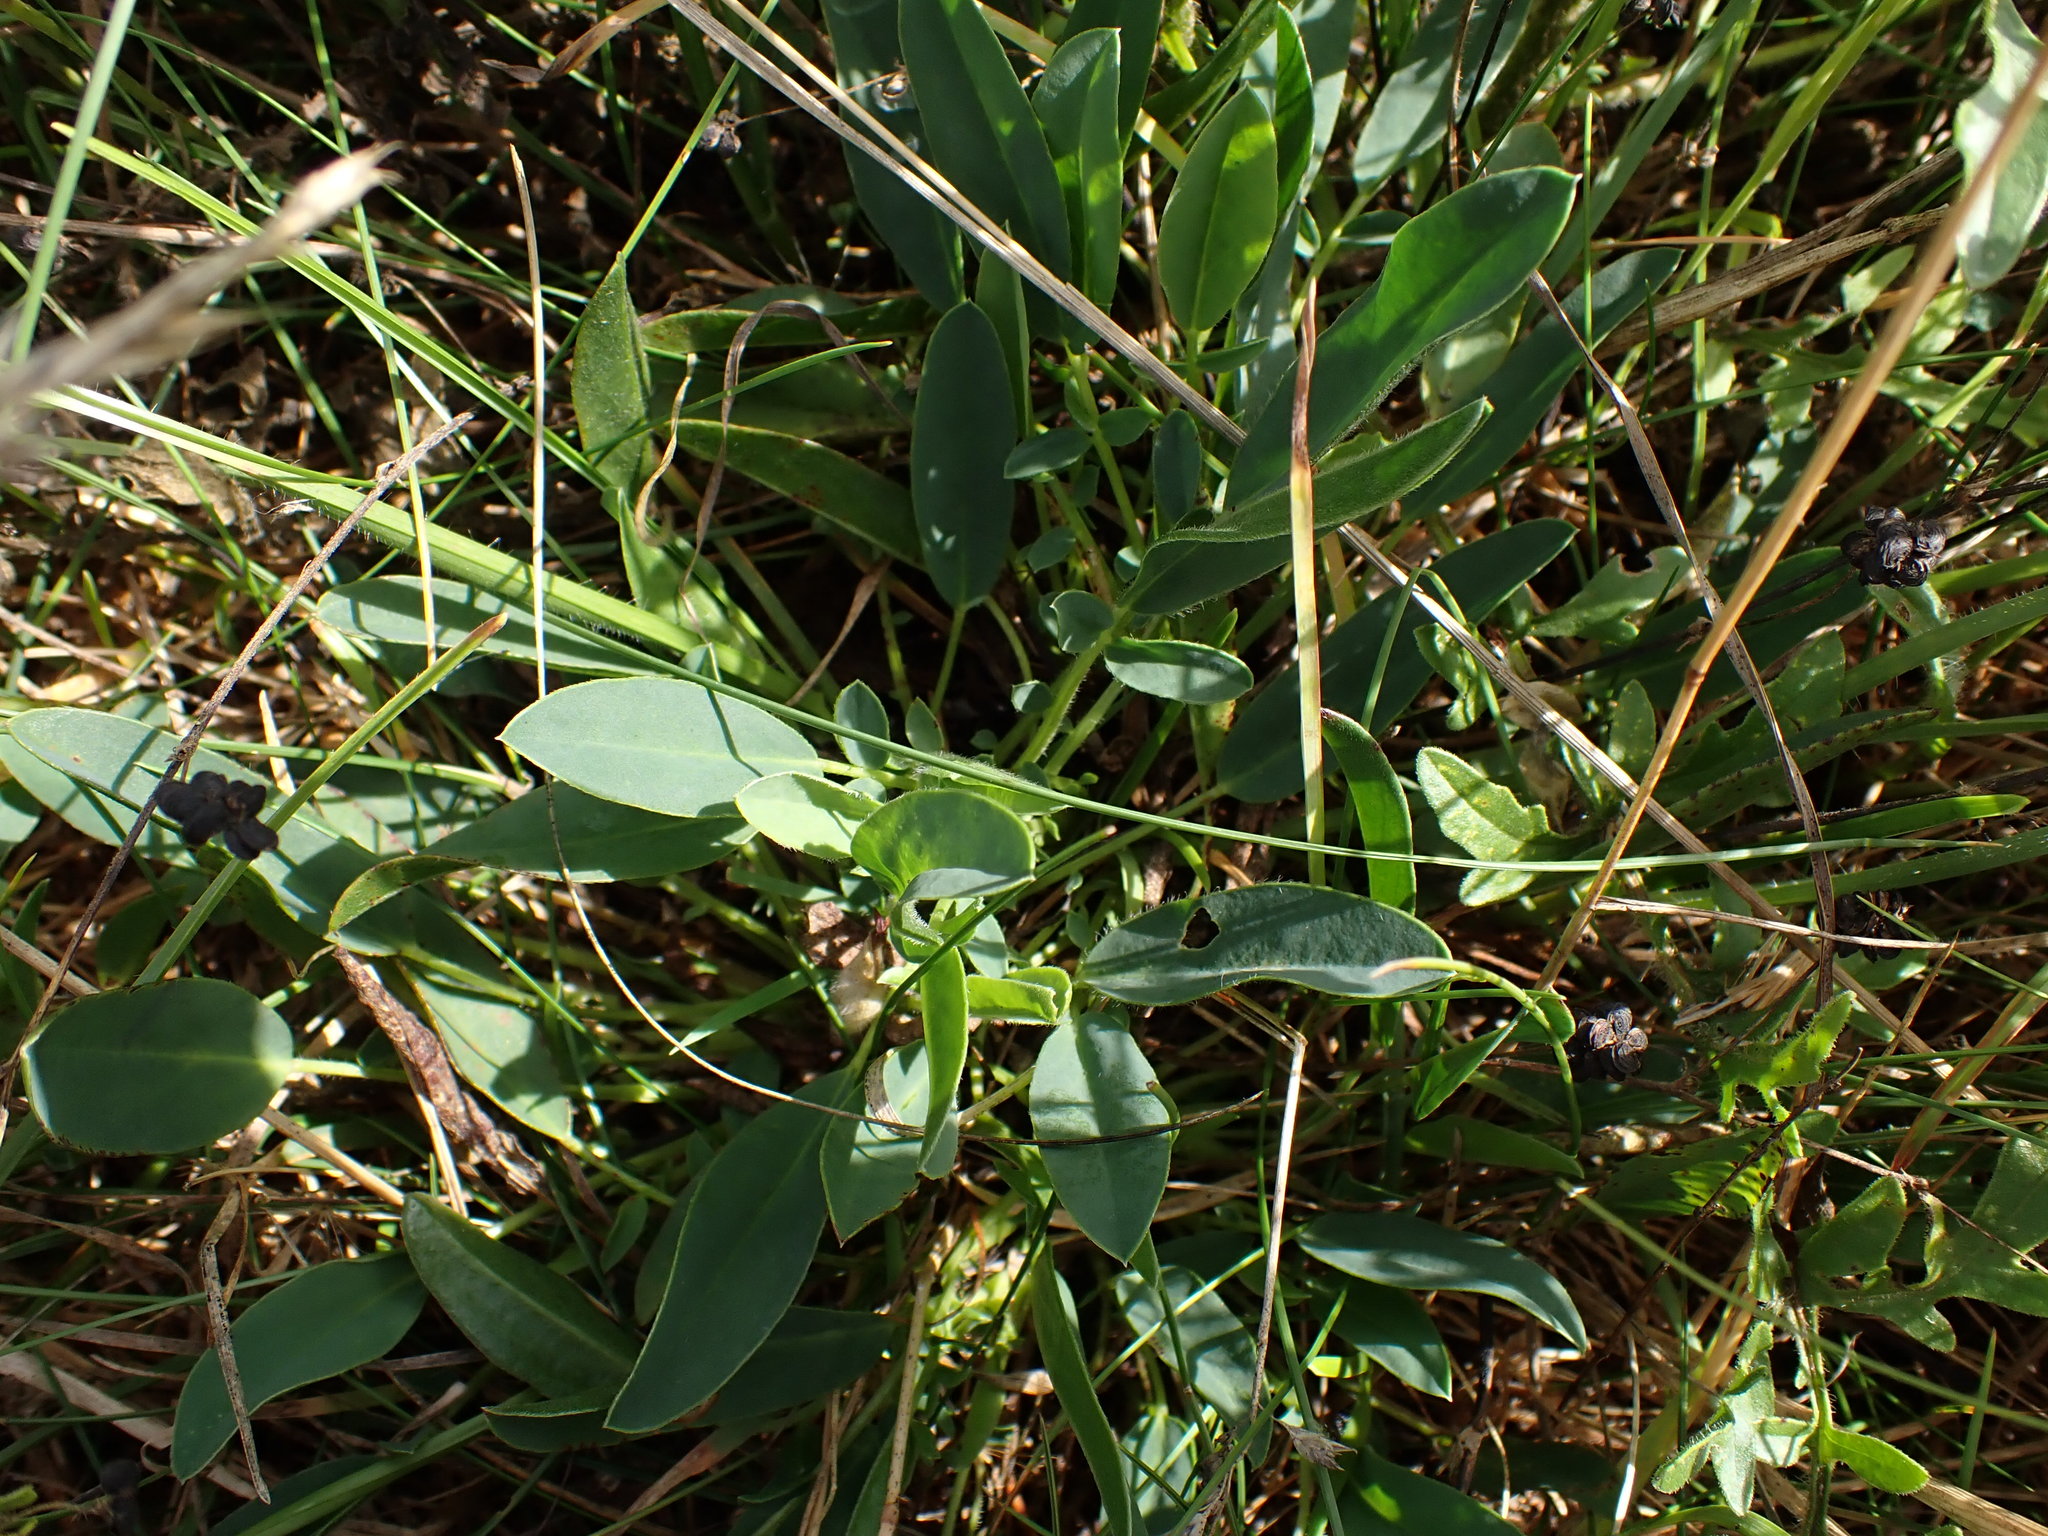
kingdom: Plantae
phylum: Tracheophyta
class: Magnoliopsida
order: Fabales
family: Fabaceae
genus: Anthyllis
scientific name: Anthyllis vulneraria
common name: Kidney vetch
